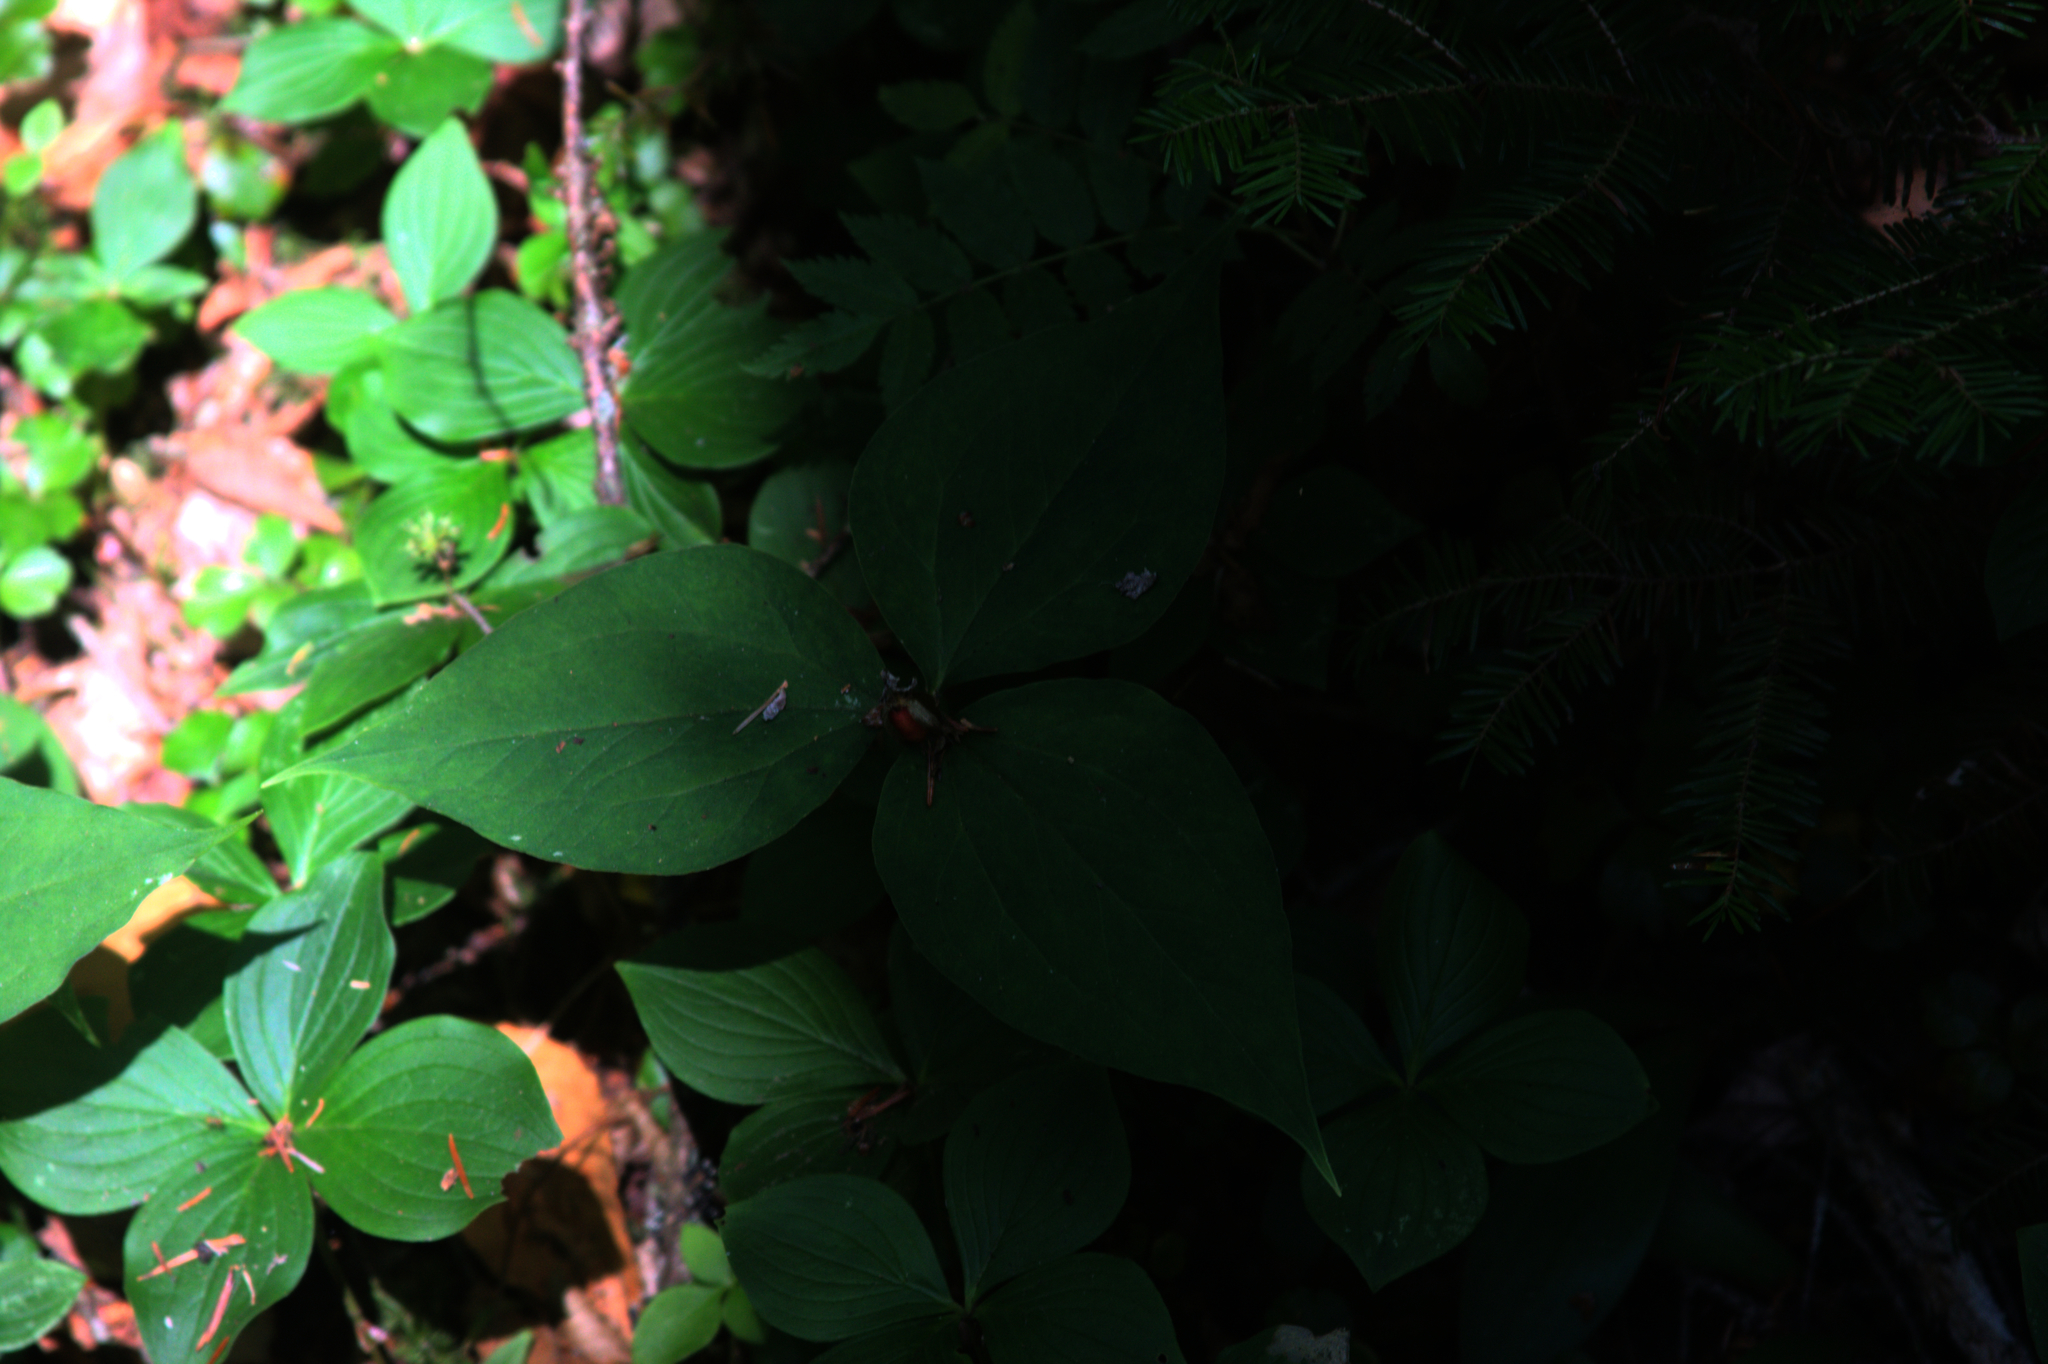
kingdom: Plantae
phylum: Tracheophyta
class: Liliopsida
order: Liliales
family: Melanthiaceae
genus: Trillium
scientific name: Trillium undulatum
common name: Paint trillium
